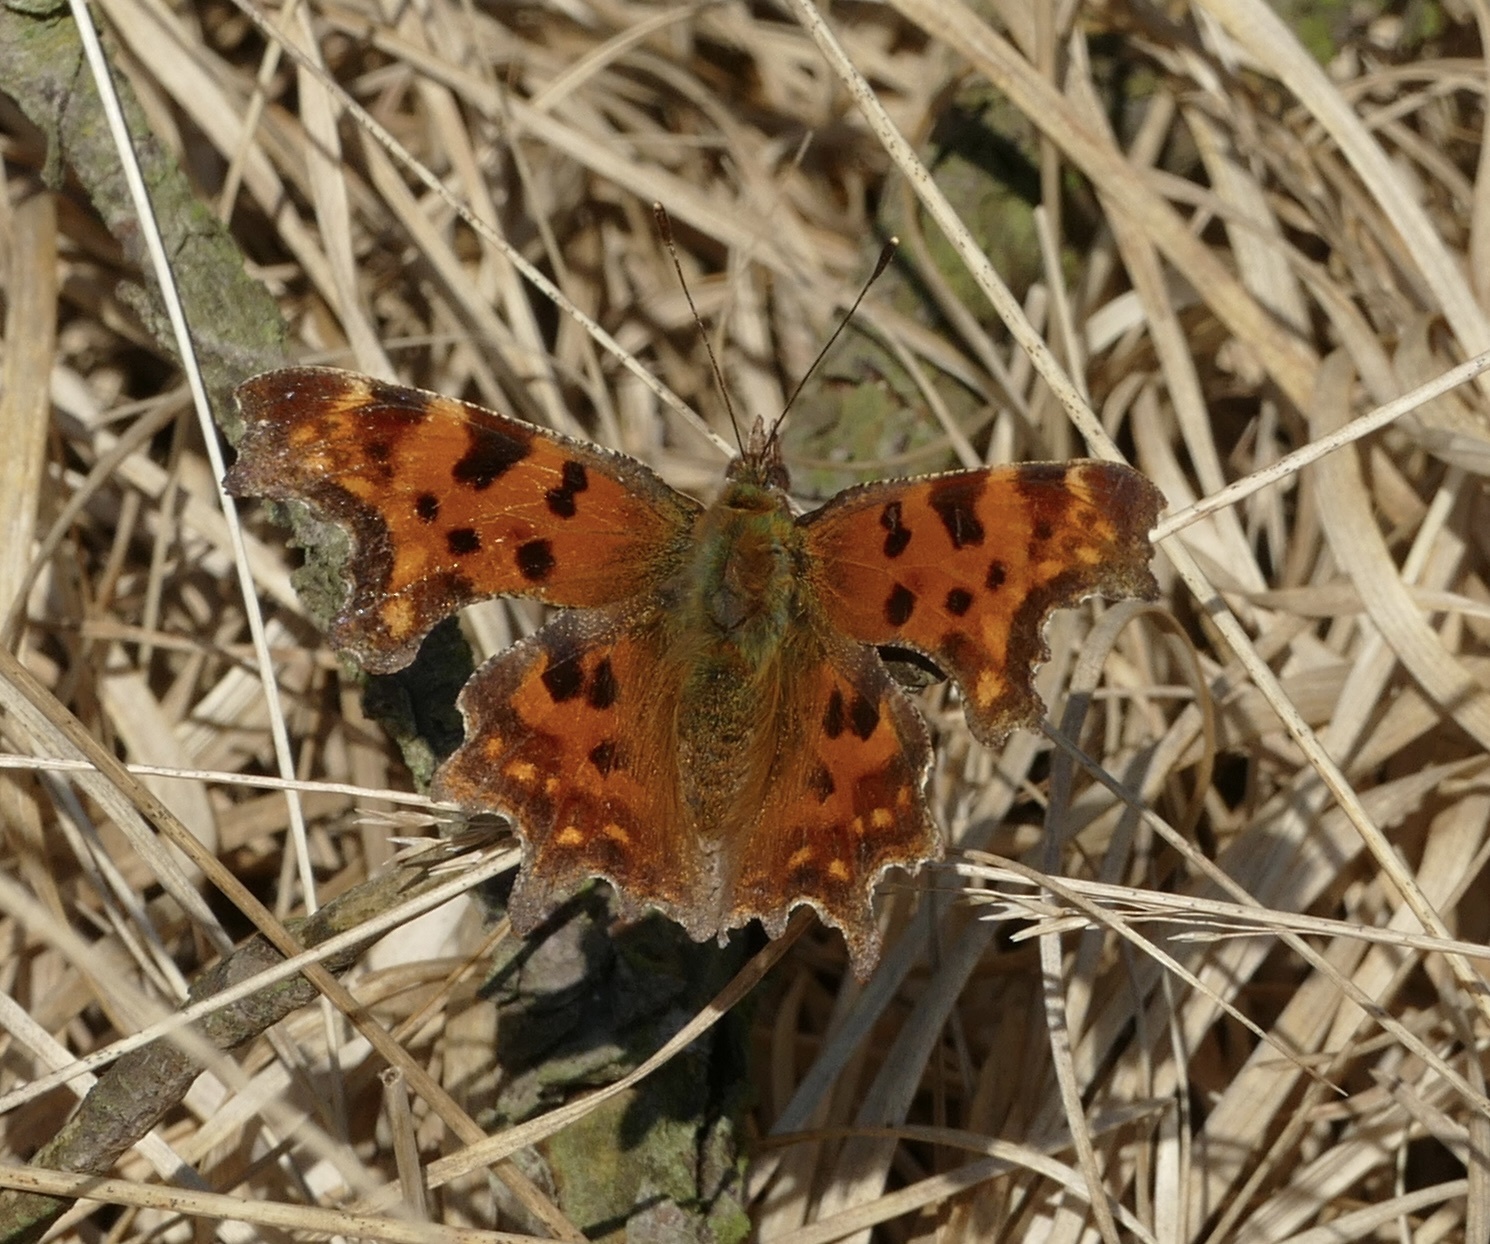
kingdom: Animalia
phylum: Arthropoda
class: Insecta
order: Lepidoptera
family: Nymphalidae
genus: Polygonia
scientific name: Polygonia c-album
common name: Comma
